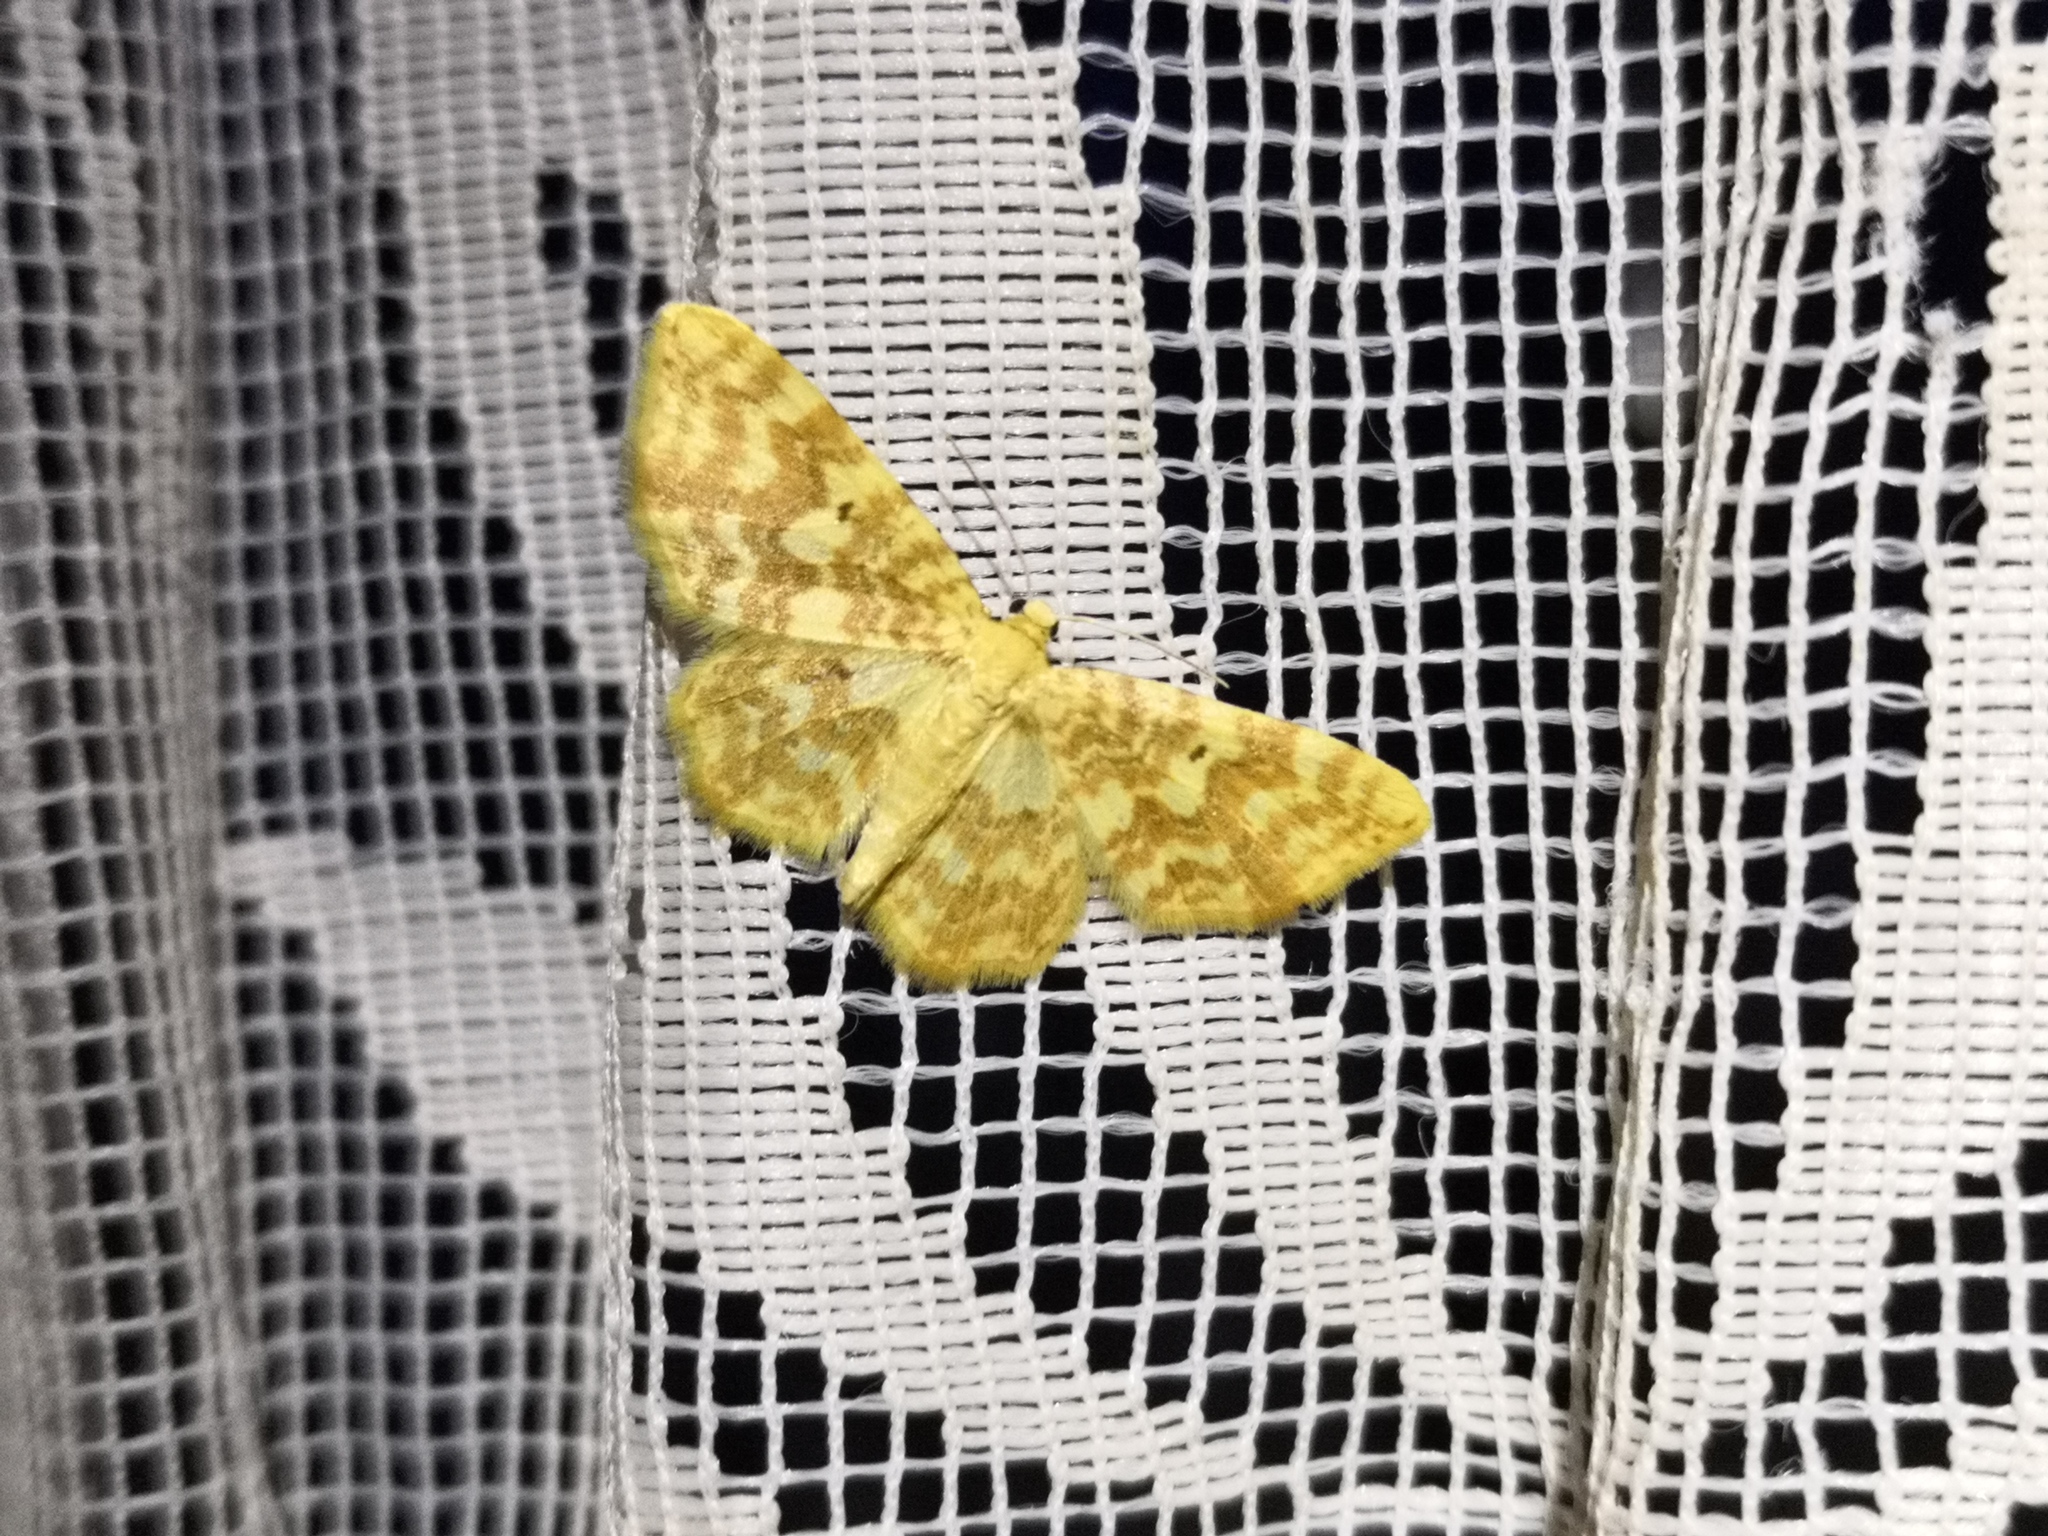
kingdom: Animalia
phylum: Arthropoda
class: Insecta
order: Lepidoptera
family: Geometridae
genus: Hydrelia
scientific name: Hydrelia flammeolaria
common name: Small yellow wave
